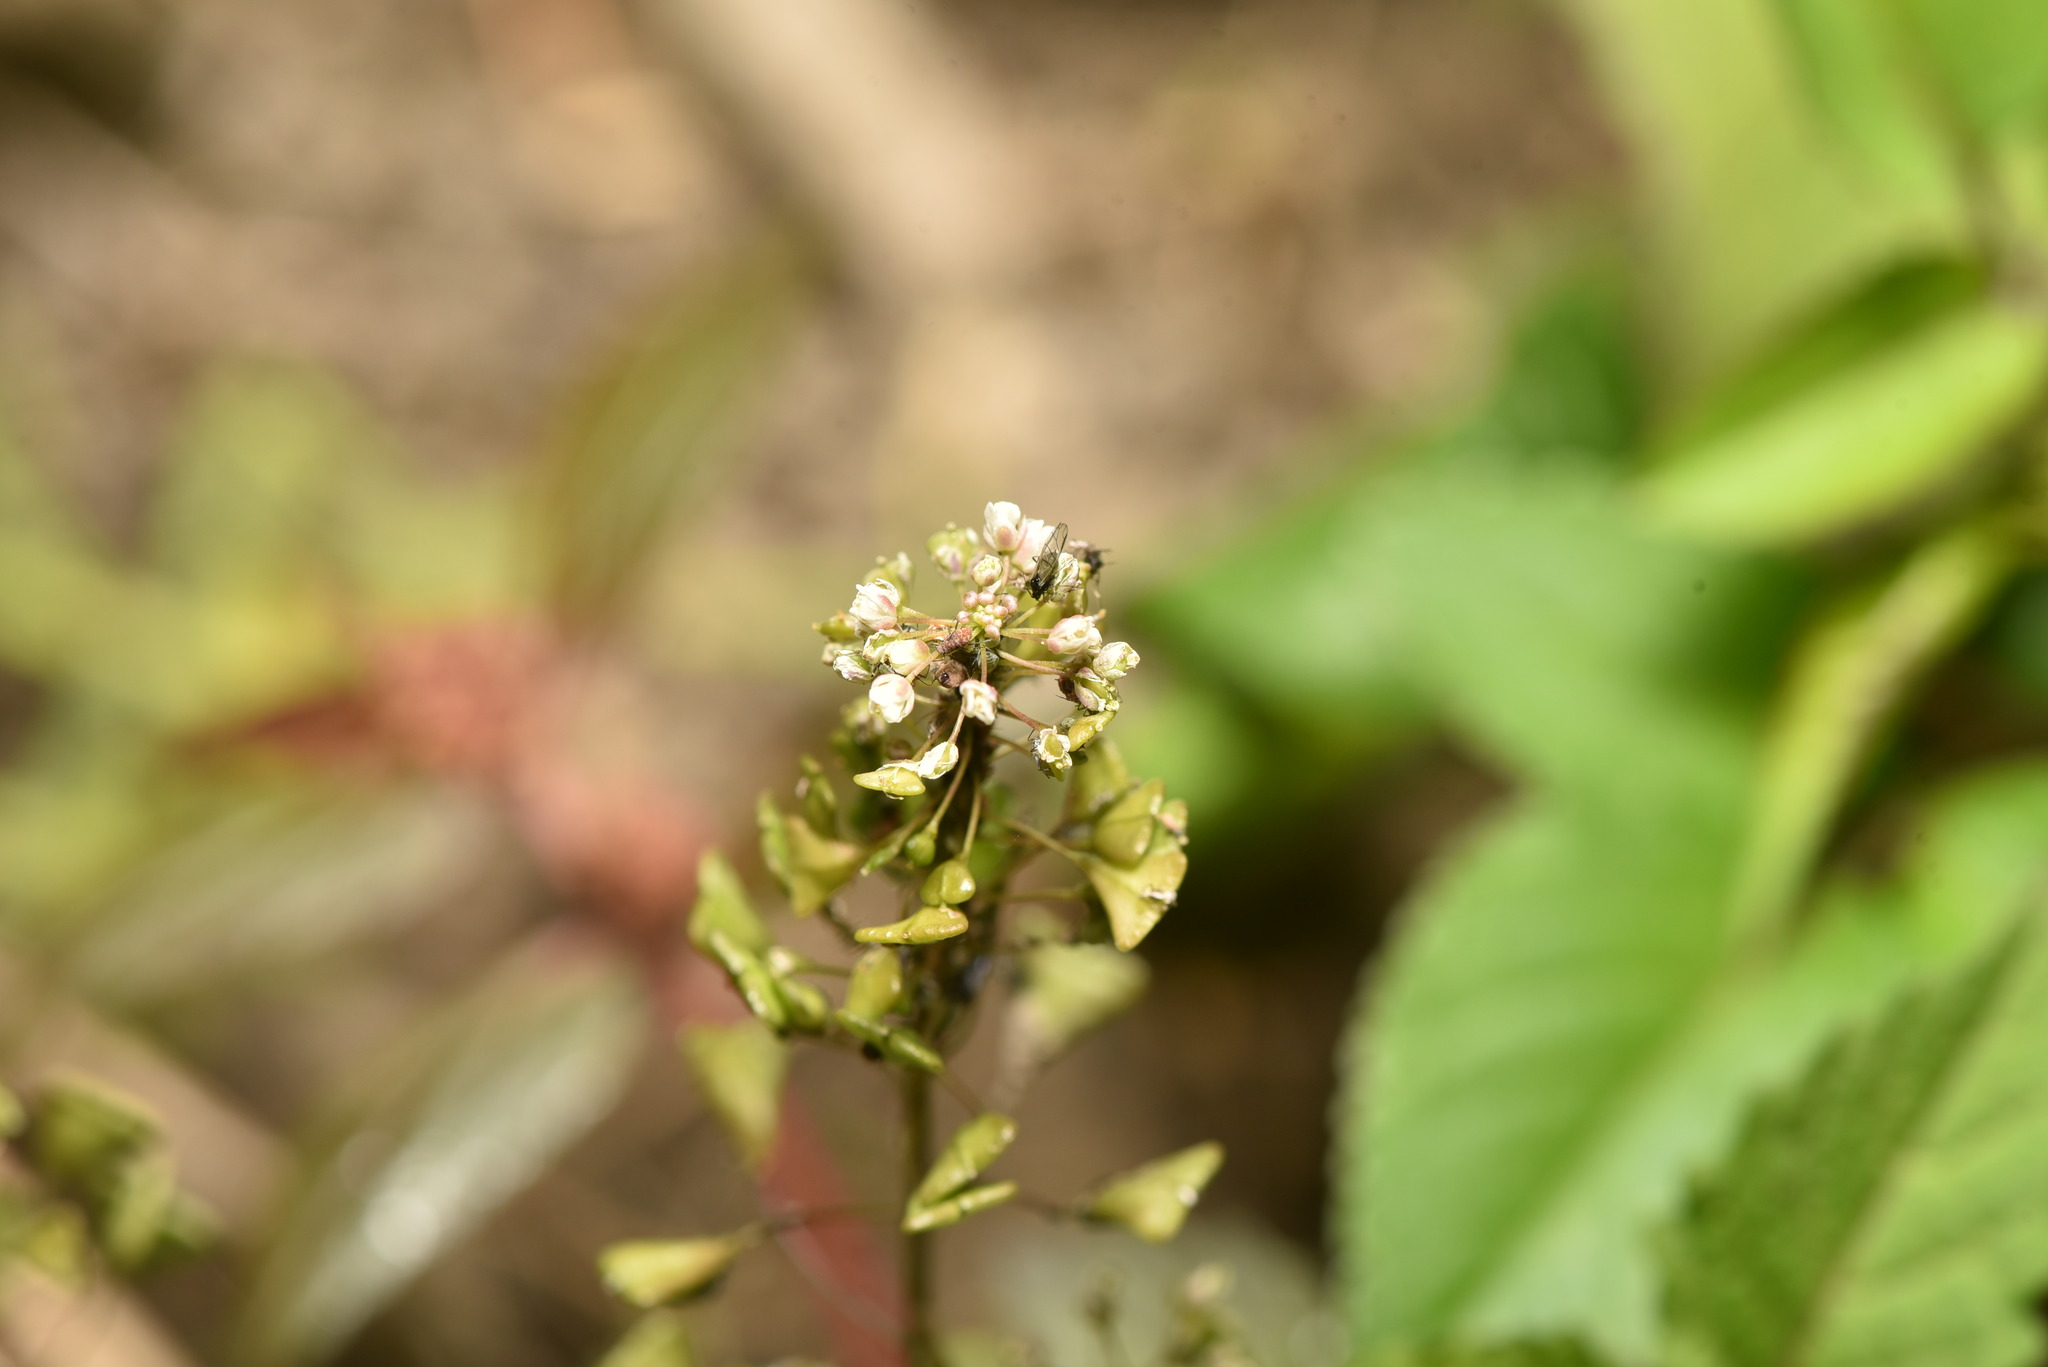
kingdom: Plantae
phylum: Tracheophyta
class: Magnoliopsida
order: Brassicales
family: Brassicaceae
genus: Capsella
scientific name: Capsella bursa-pastoris
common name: Shepherd's purse
